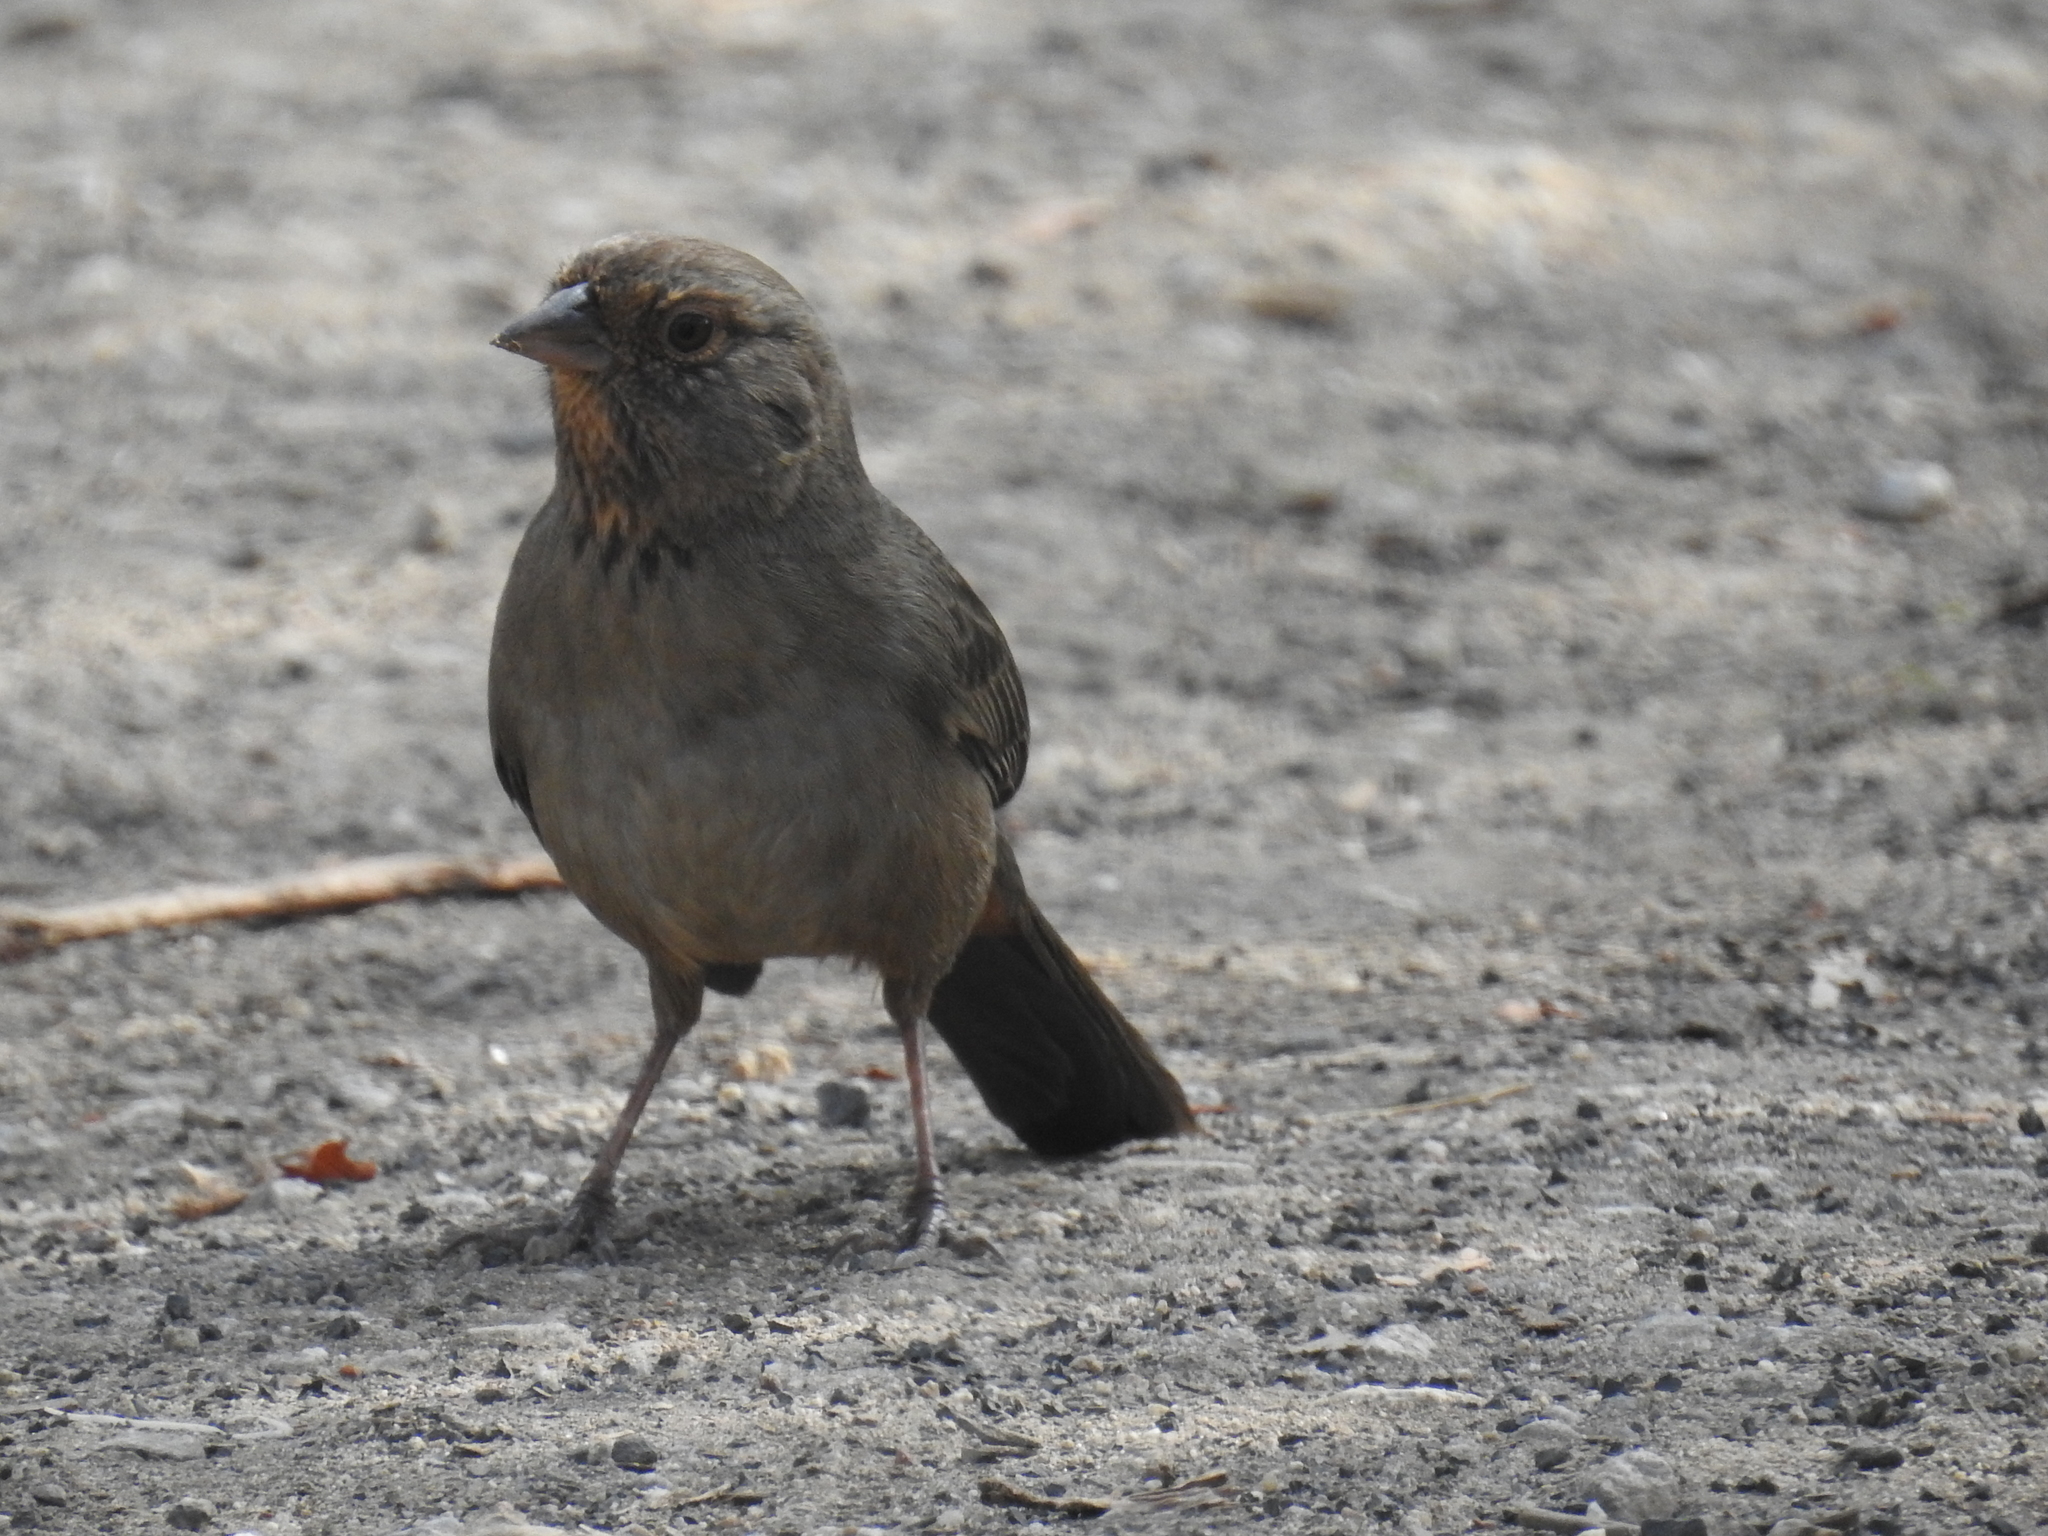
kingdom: Animalia
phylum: Chordata
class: Aves
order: Passeriformes
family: Passerellidae
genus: Melozone
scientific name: Melozone crissalis
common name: California towhee
